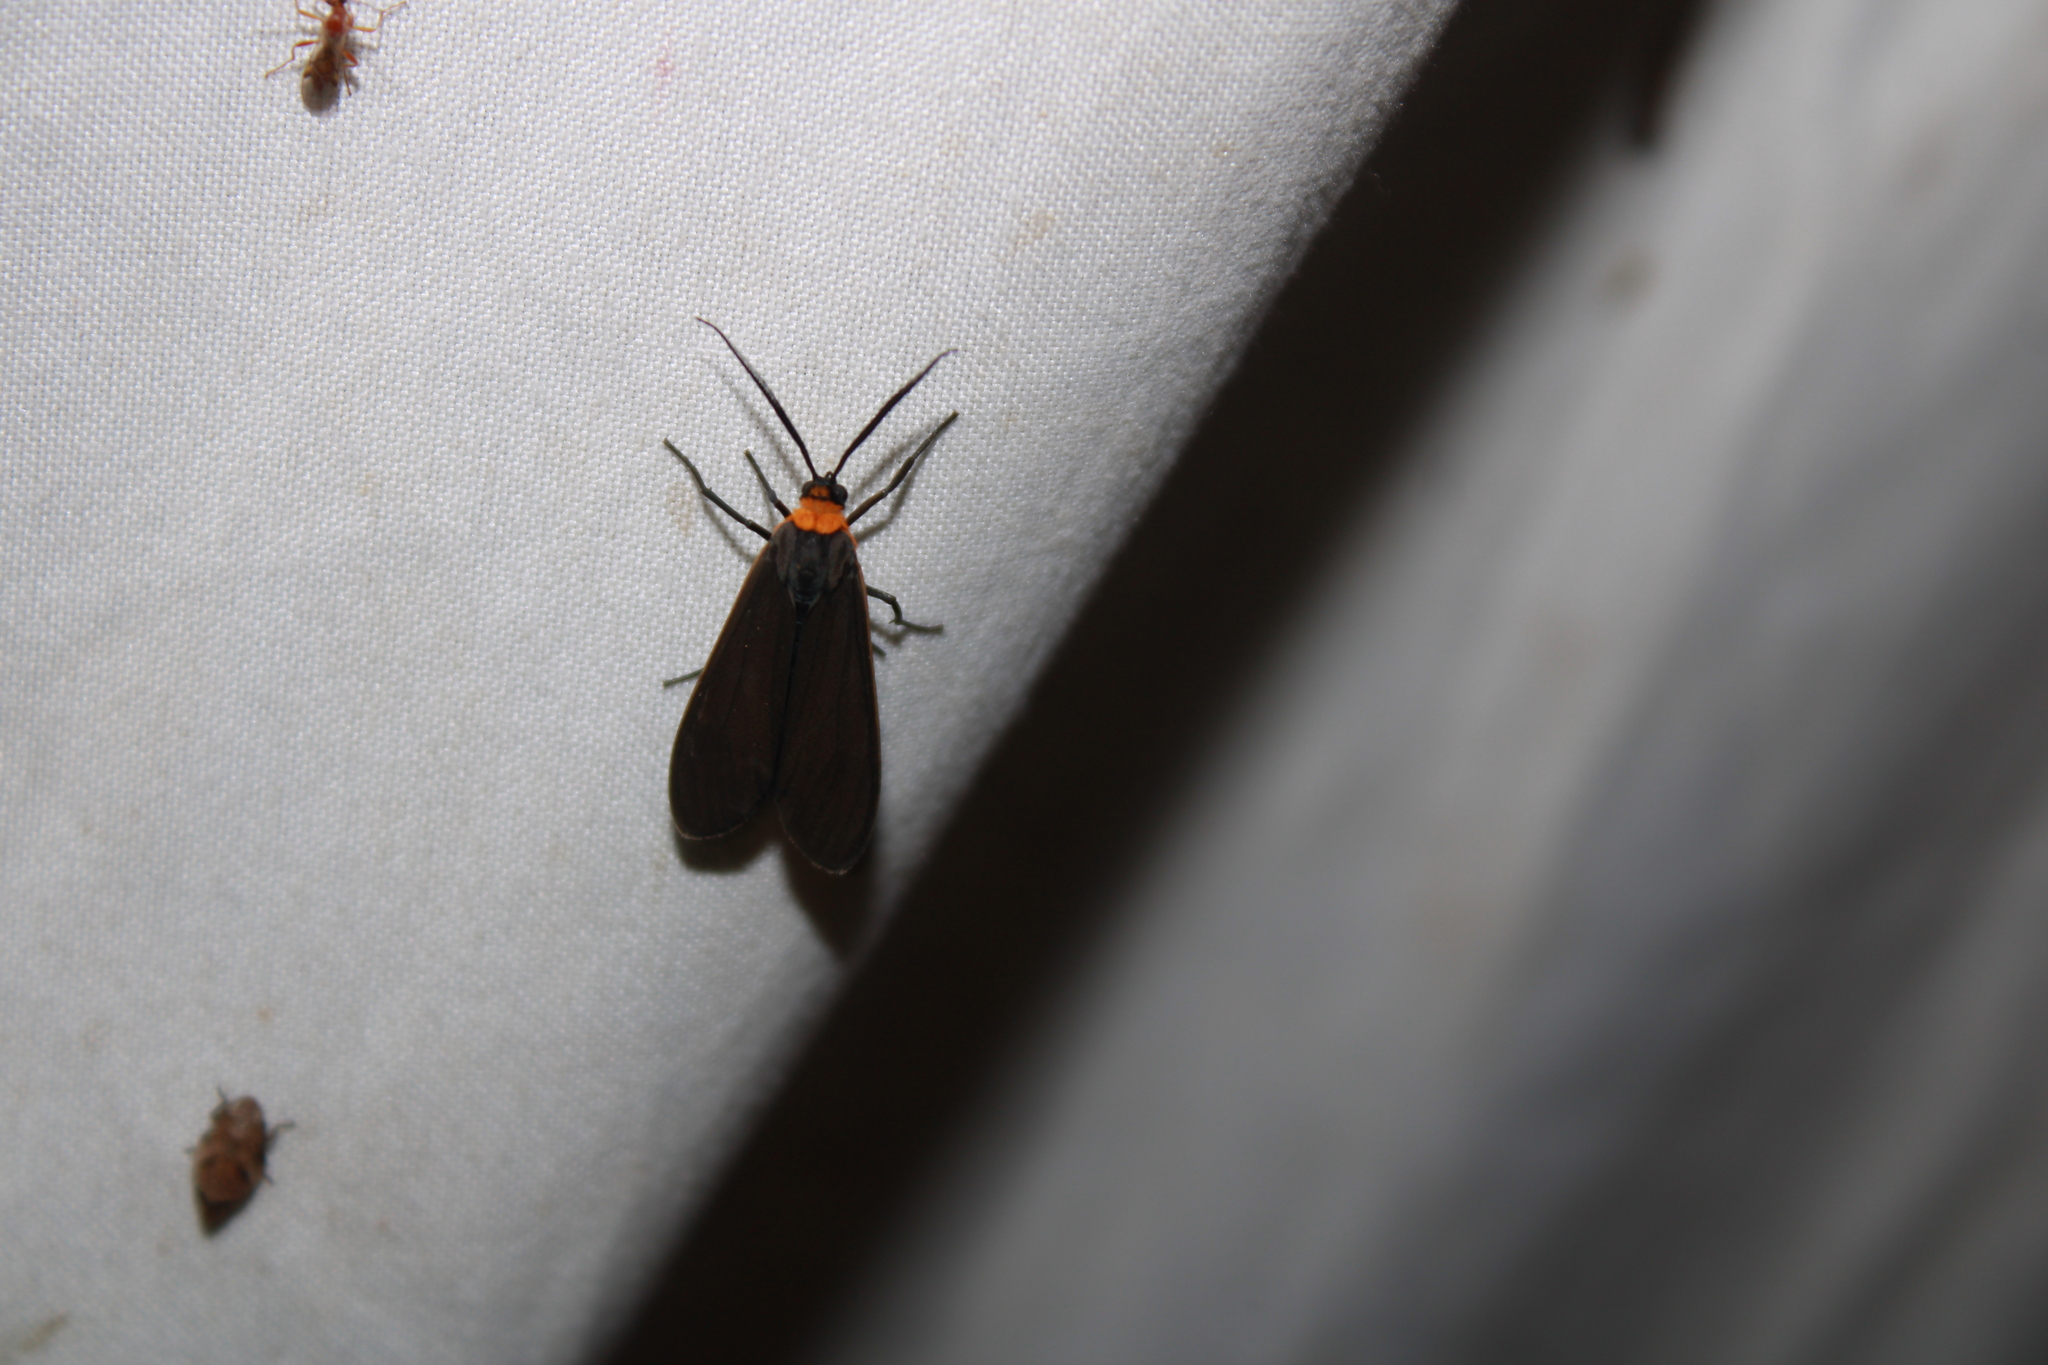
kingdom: Animalia
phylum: Arthropoda
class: Insecta
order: Lepidoptera
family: Erebidae
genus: Cisseps
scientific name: Cisseps fulvicollis
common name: Yellow-collared scape moth
